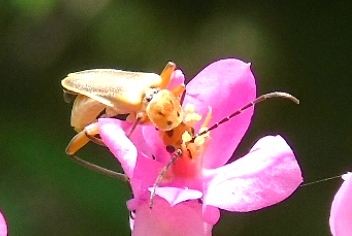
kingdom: Animalia
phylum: Arthropoda
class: Insecta
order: Coleoptera
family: Cantharidae
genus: Chauliognathus
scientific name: Chauliognathus
